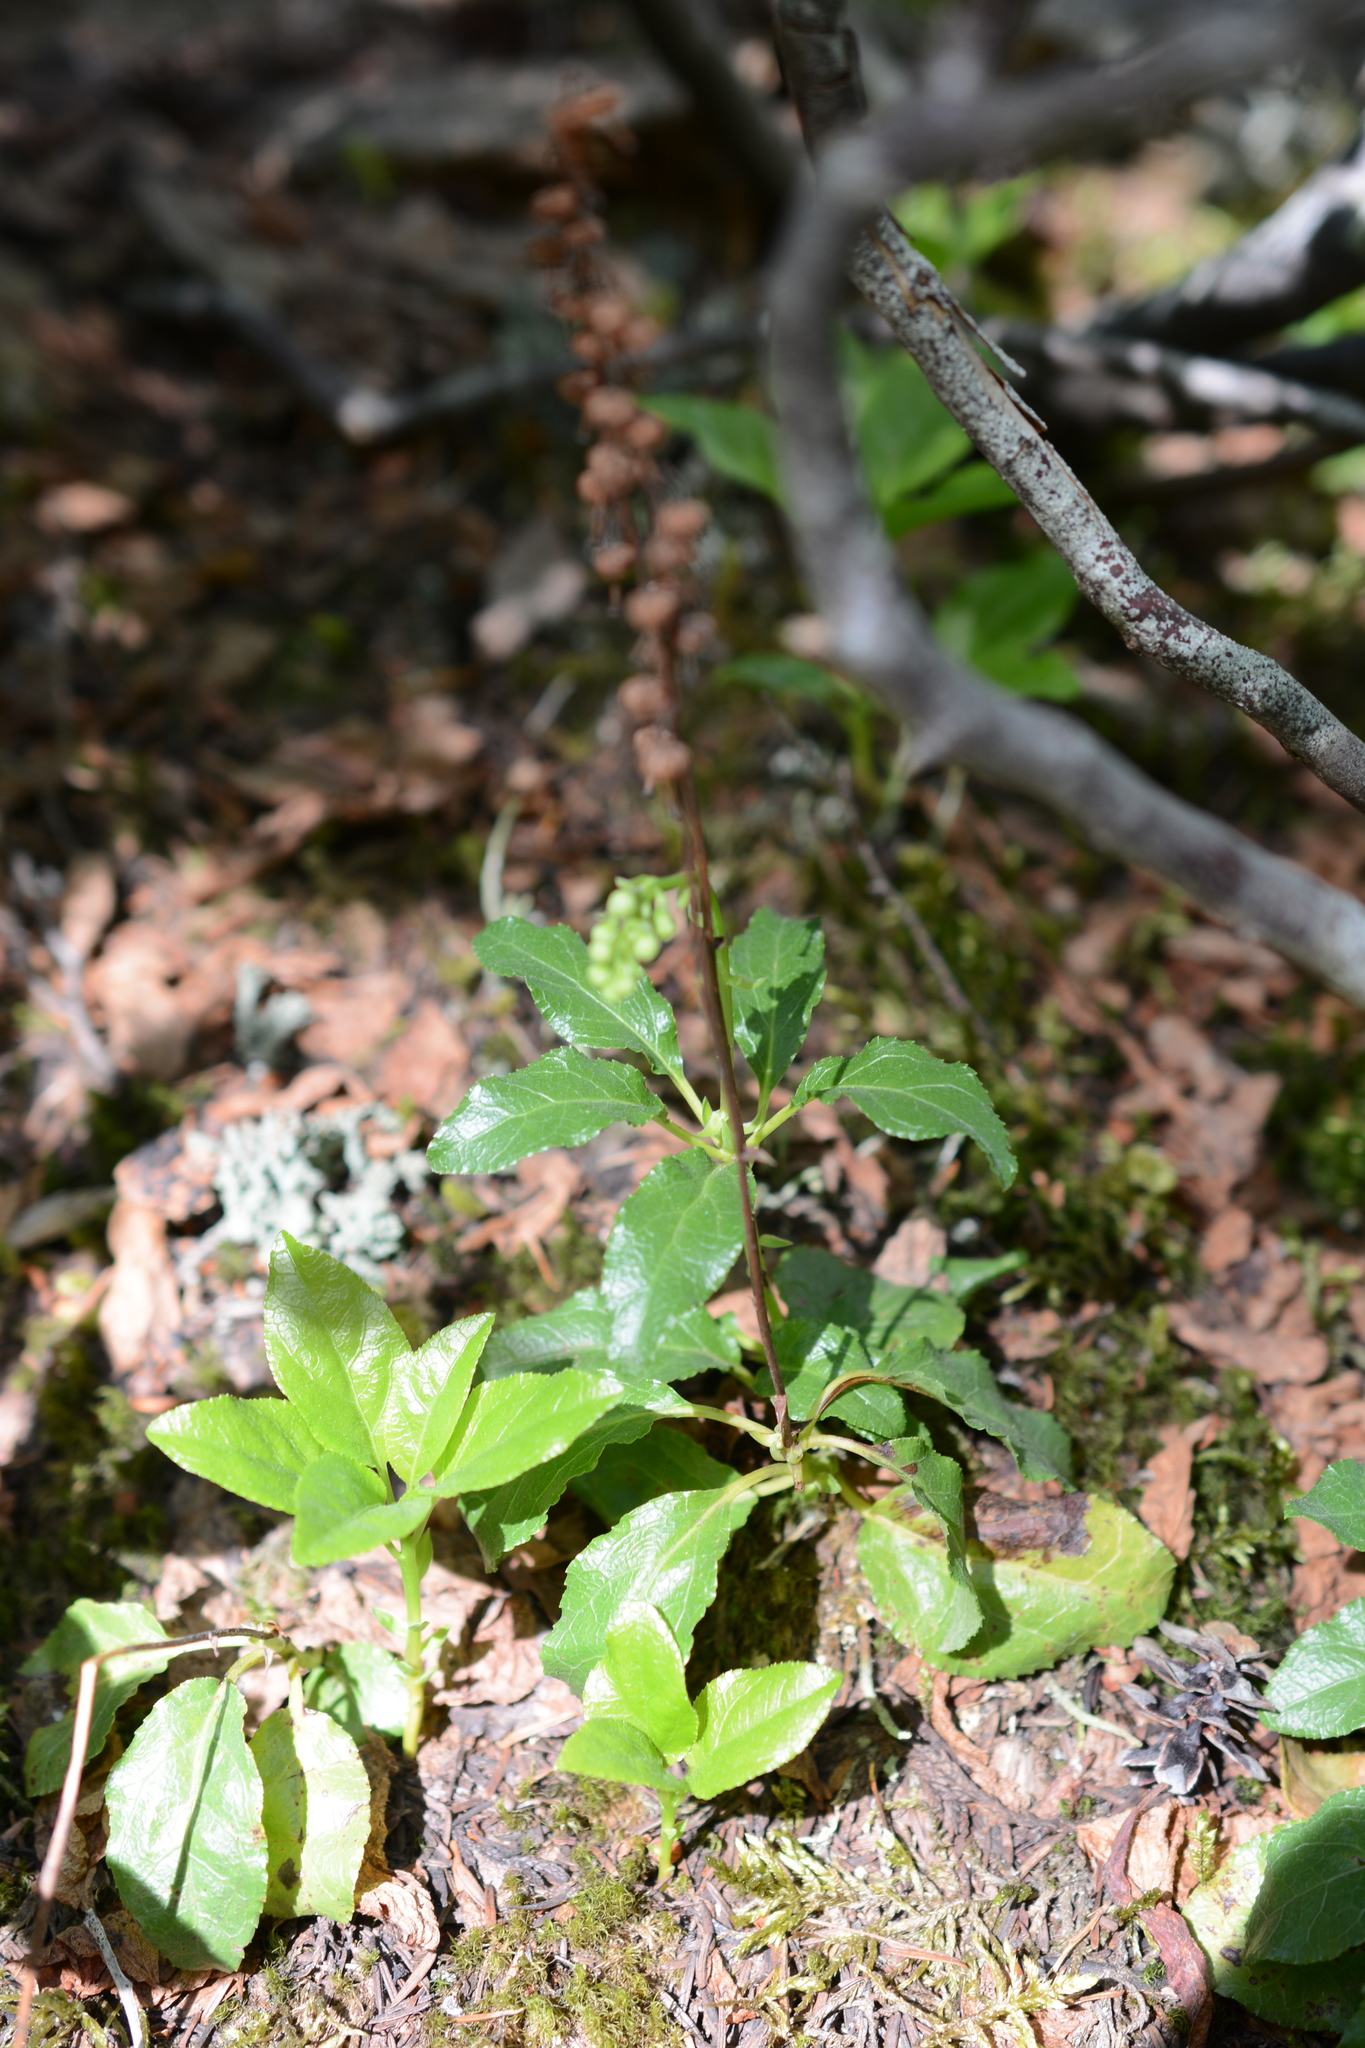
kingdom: Plantae
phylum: Tracheophyta
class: Magnoliopsida
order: Ericales
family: Ericaceae
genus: Orthilia
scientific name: Orthilia secunda
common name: One-sided orthilia
